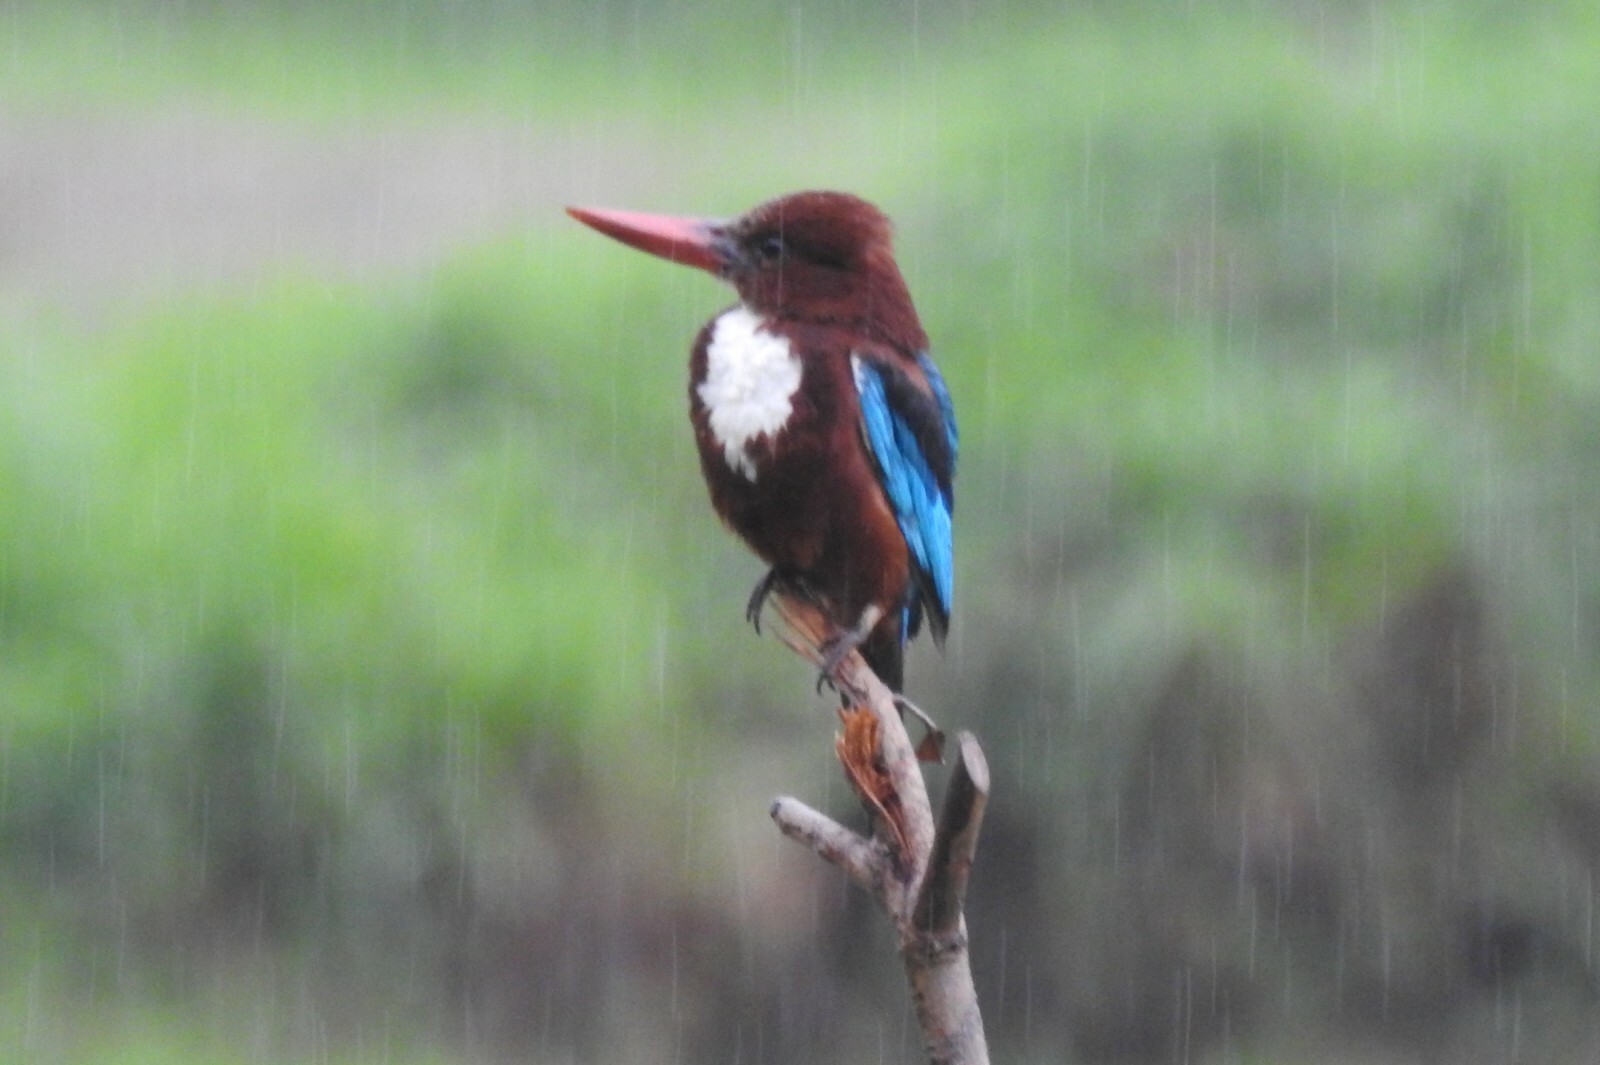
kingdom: Animalia
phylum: Chordata
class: Aves
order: Coraciiformes
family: Alcedinidae
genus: Halcyon
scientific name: Halcyon smyrnensis
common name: White-throated kingfisher
